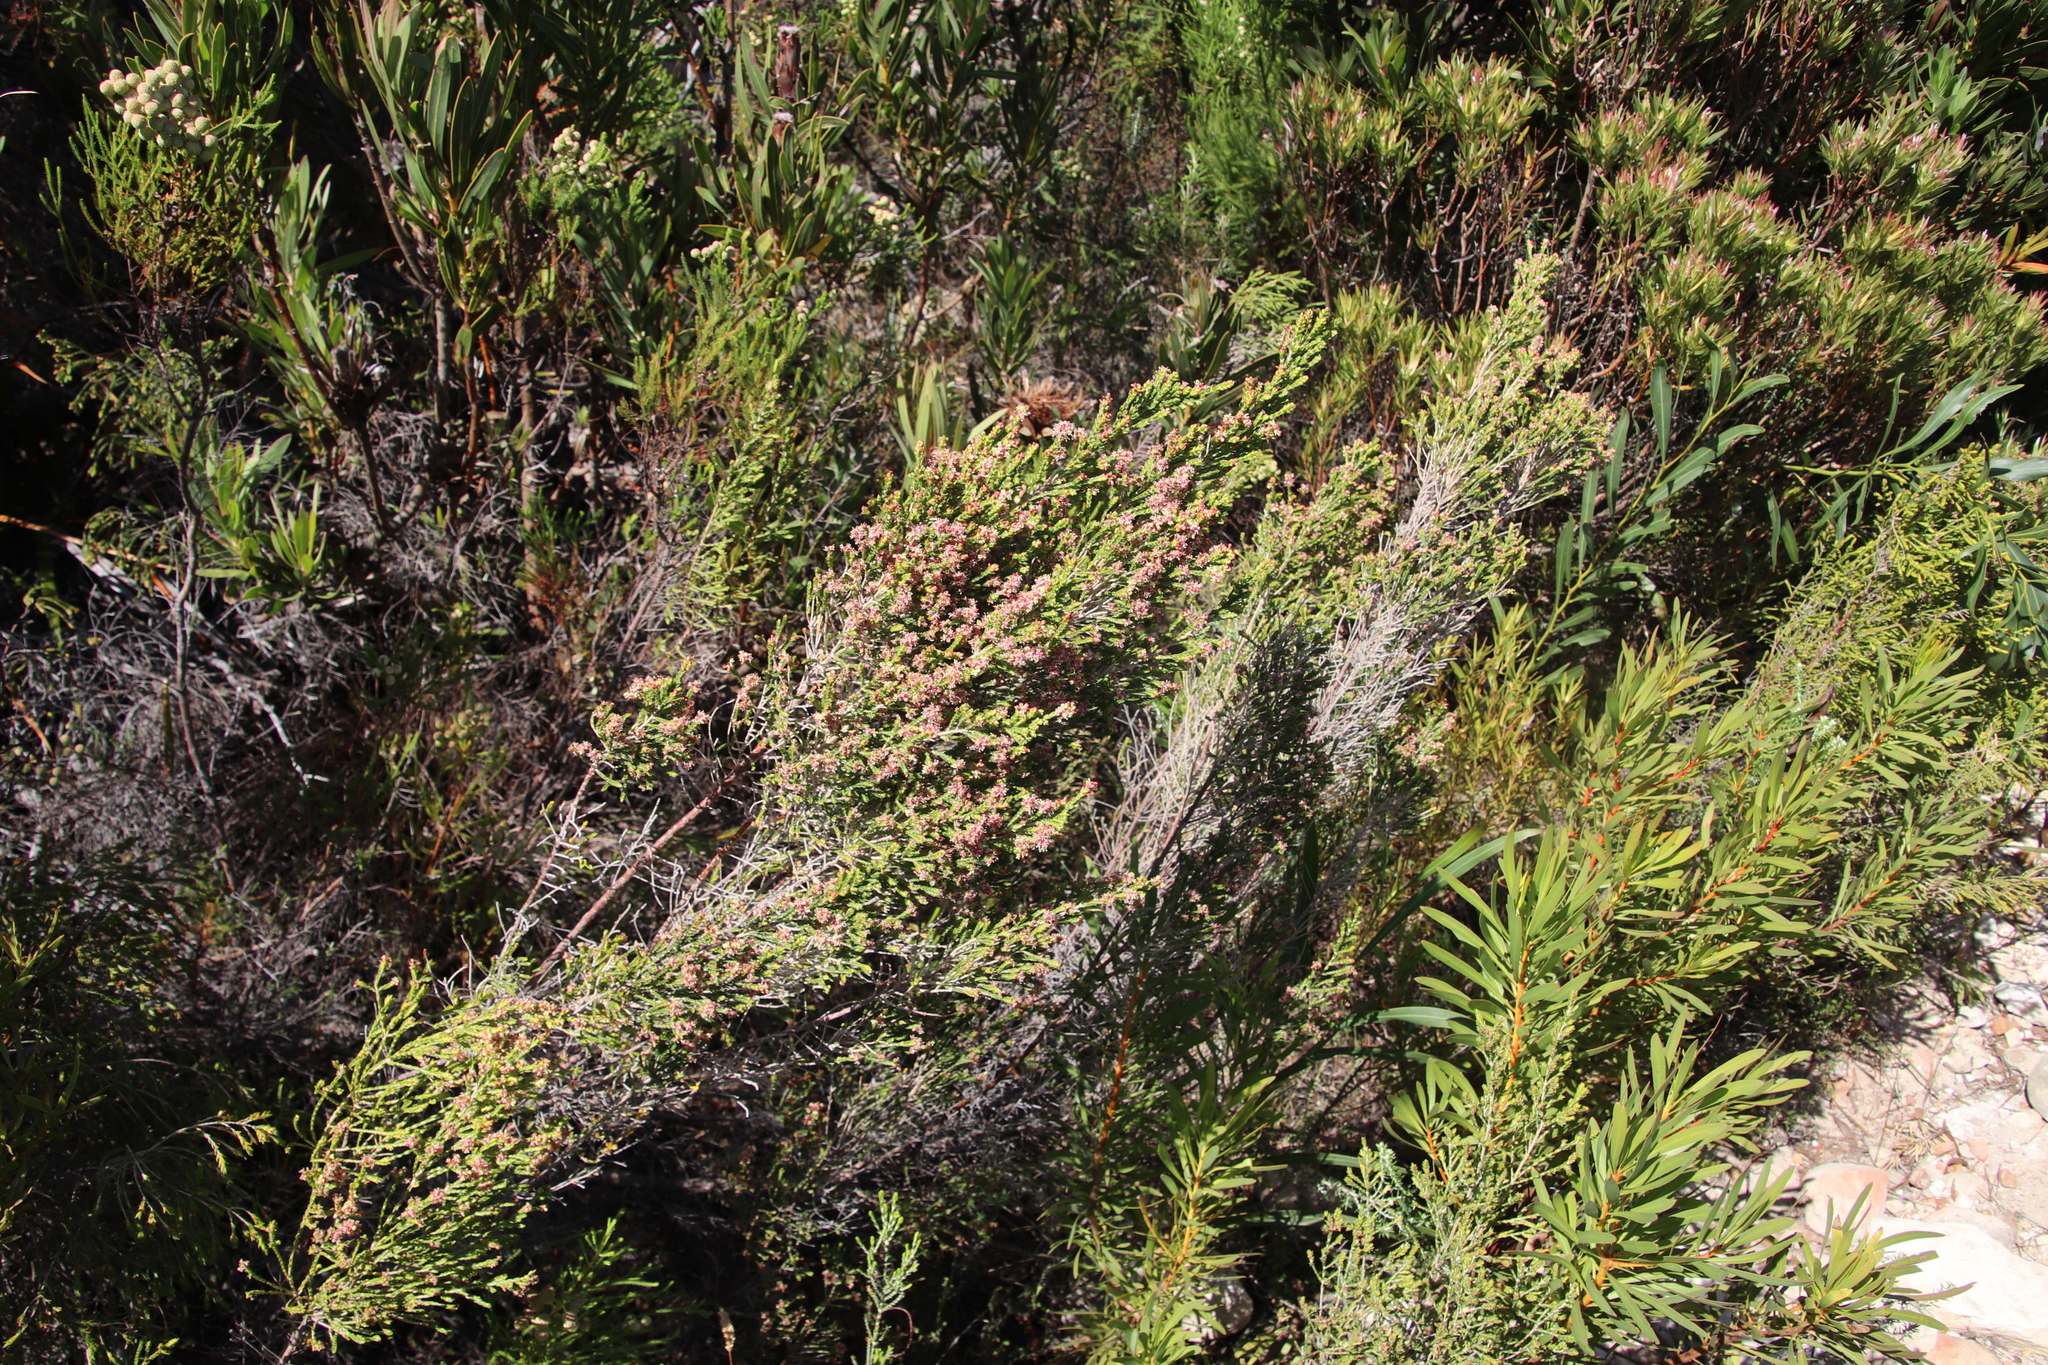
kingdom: Plantae
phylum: Tracheophyta
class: Magnoliopsida
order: Malvales
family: Thymelaeaceae
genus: Passerina
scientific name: Passerina corymbosa
